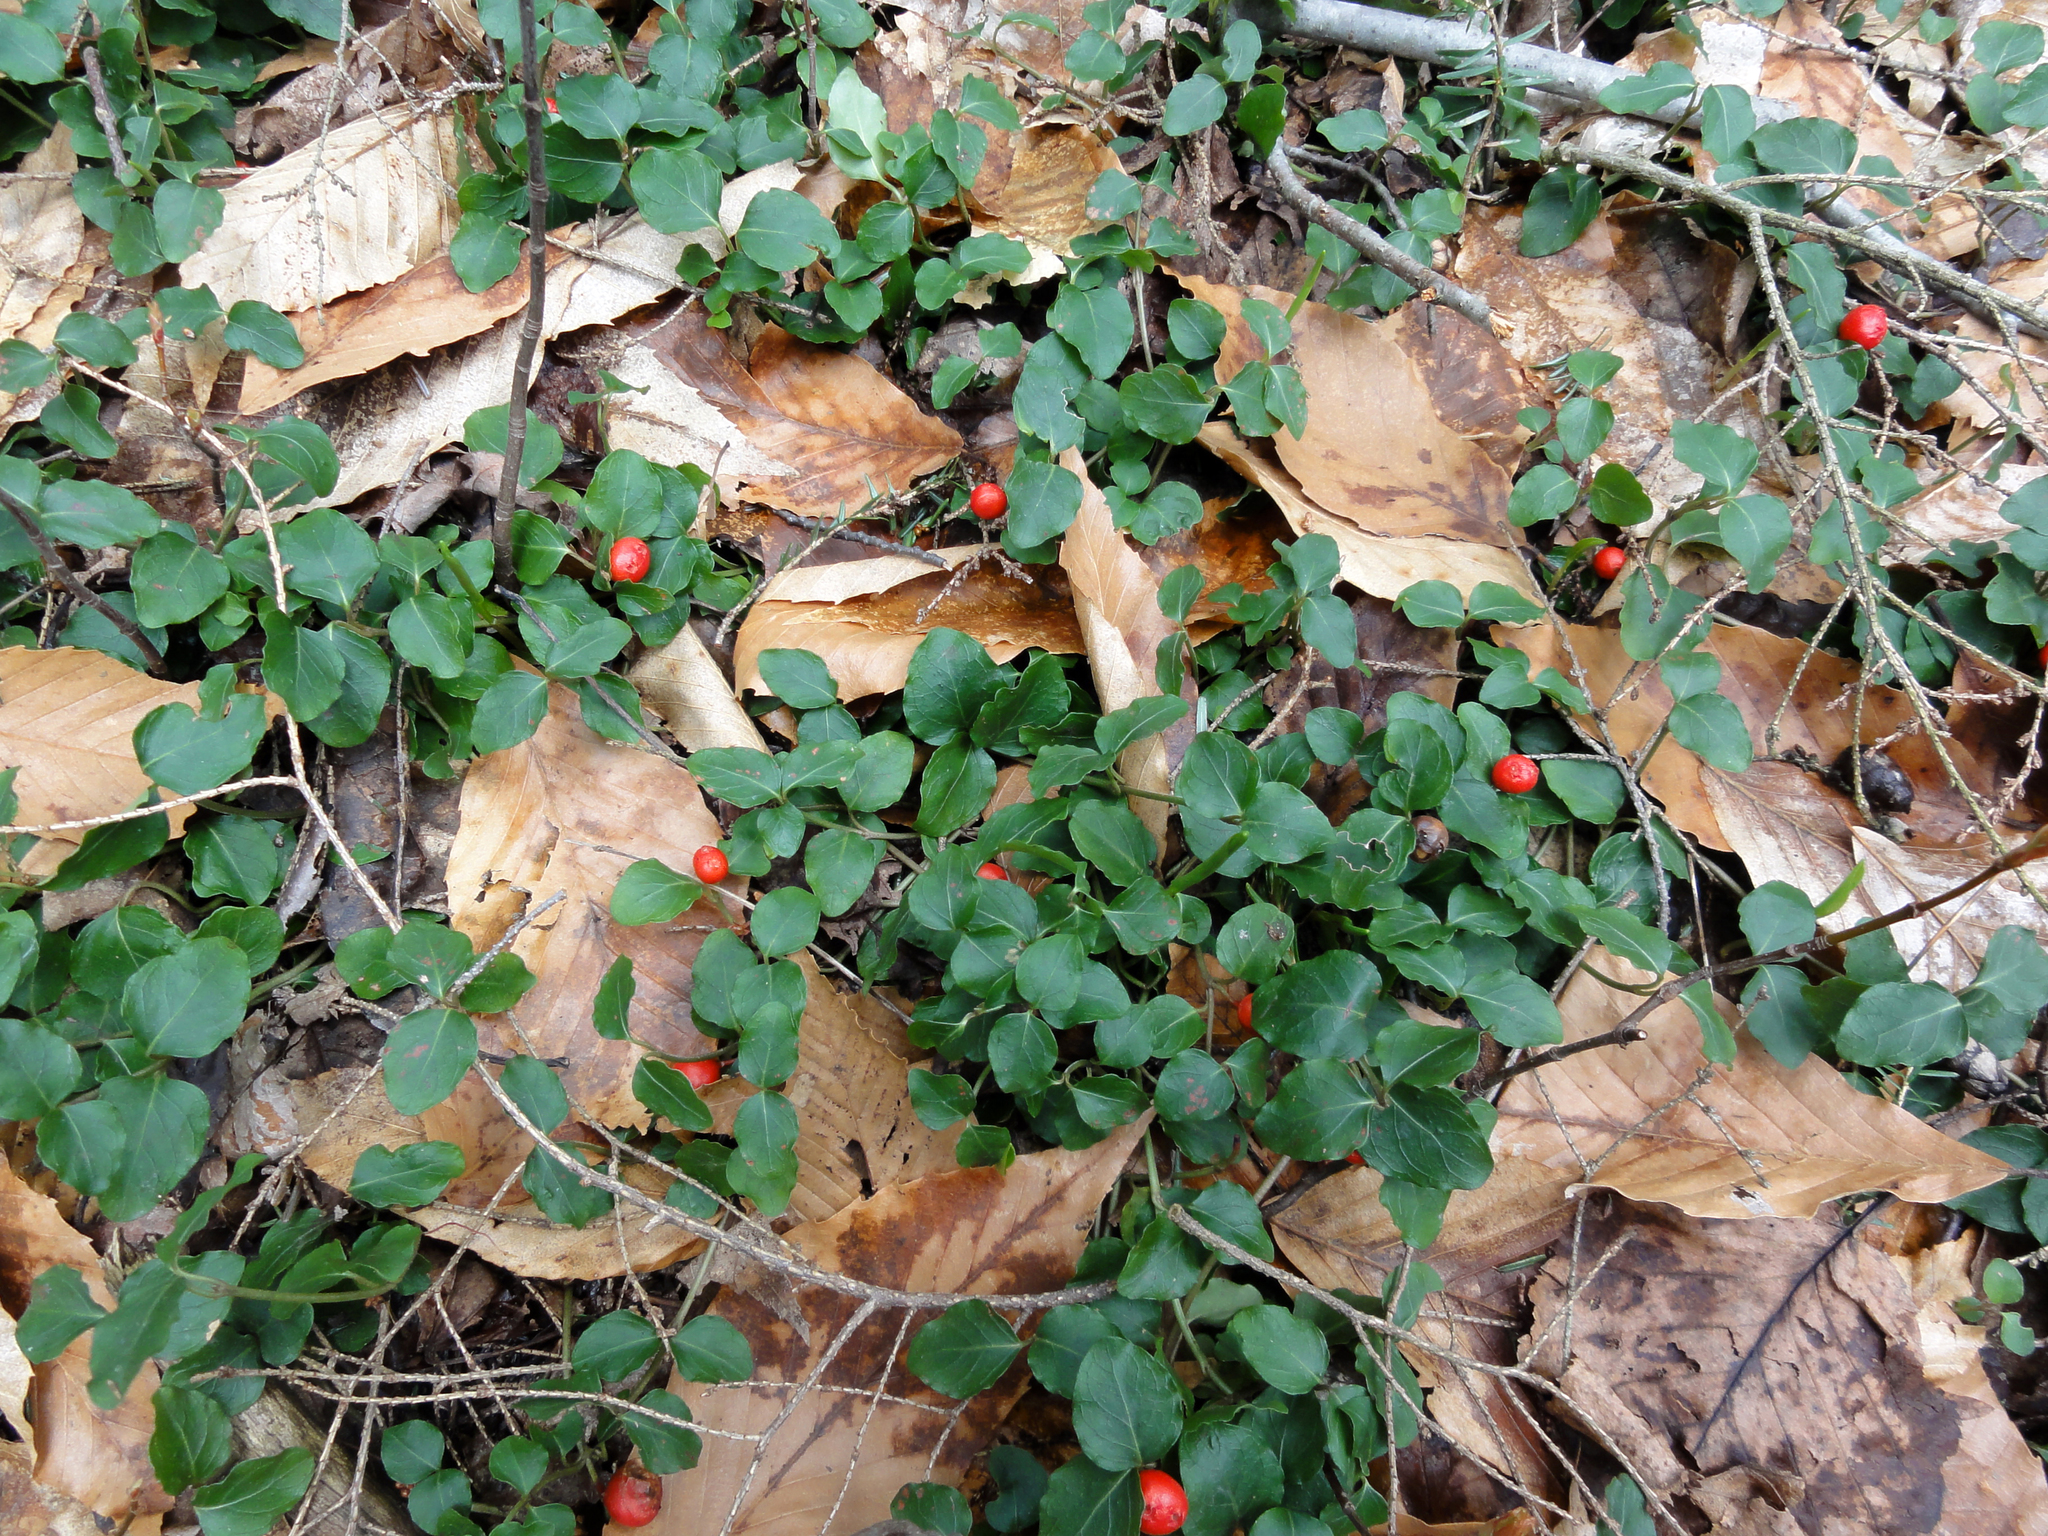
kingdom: Plantae
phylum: Tracheophyta
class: Magnoliopsida
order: Gentianales
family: Rubiaceae
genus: Mitchella
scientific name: Mitchella repens
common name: Partridge-berry
